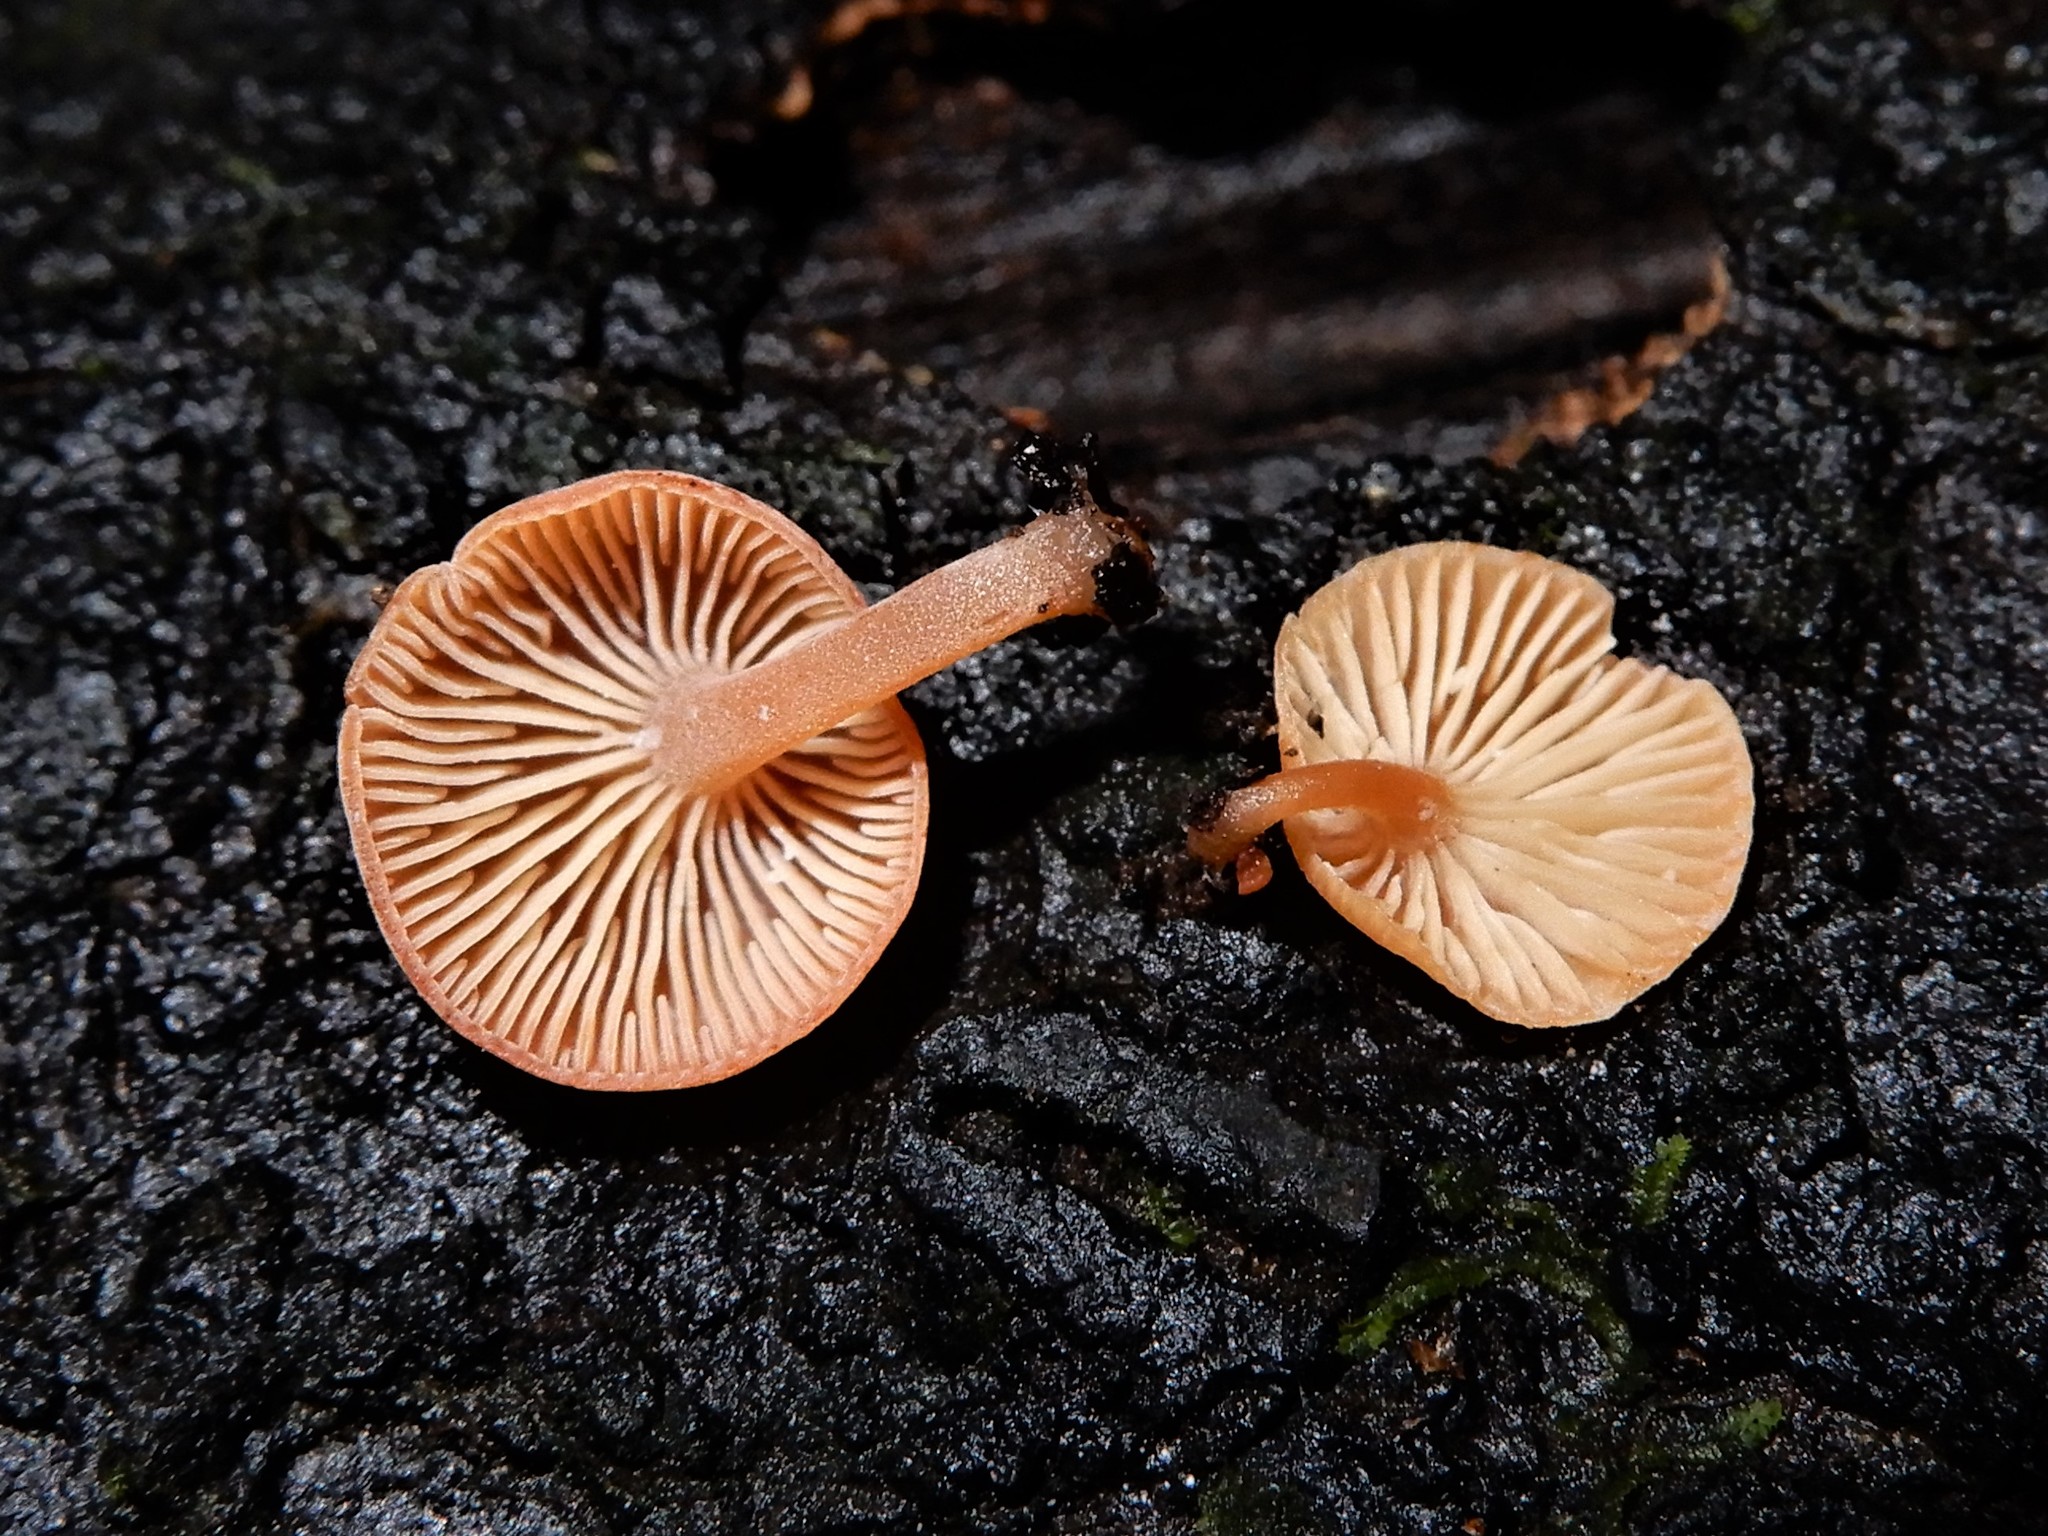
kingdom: Fungi
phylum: Basidiomycota
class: Agaricomycetes
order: Agaricales
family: Tricholomataceae
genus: Omphalina
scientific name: Omphalina wellingtonensis
